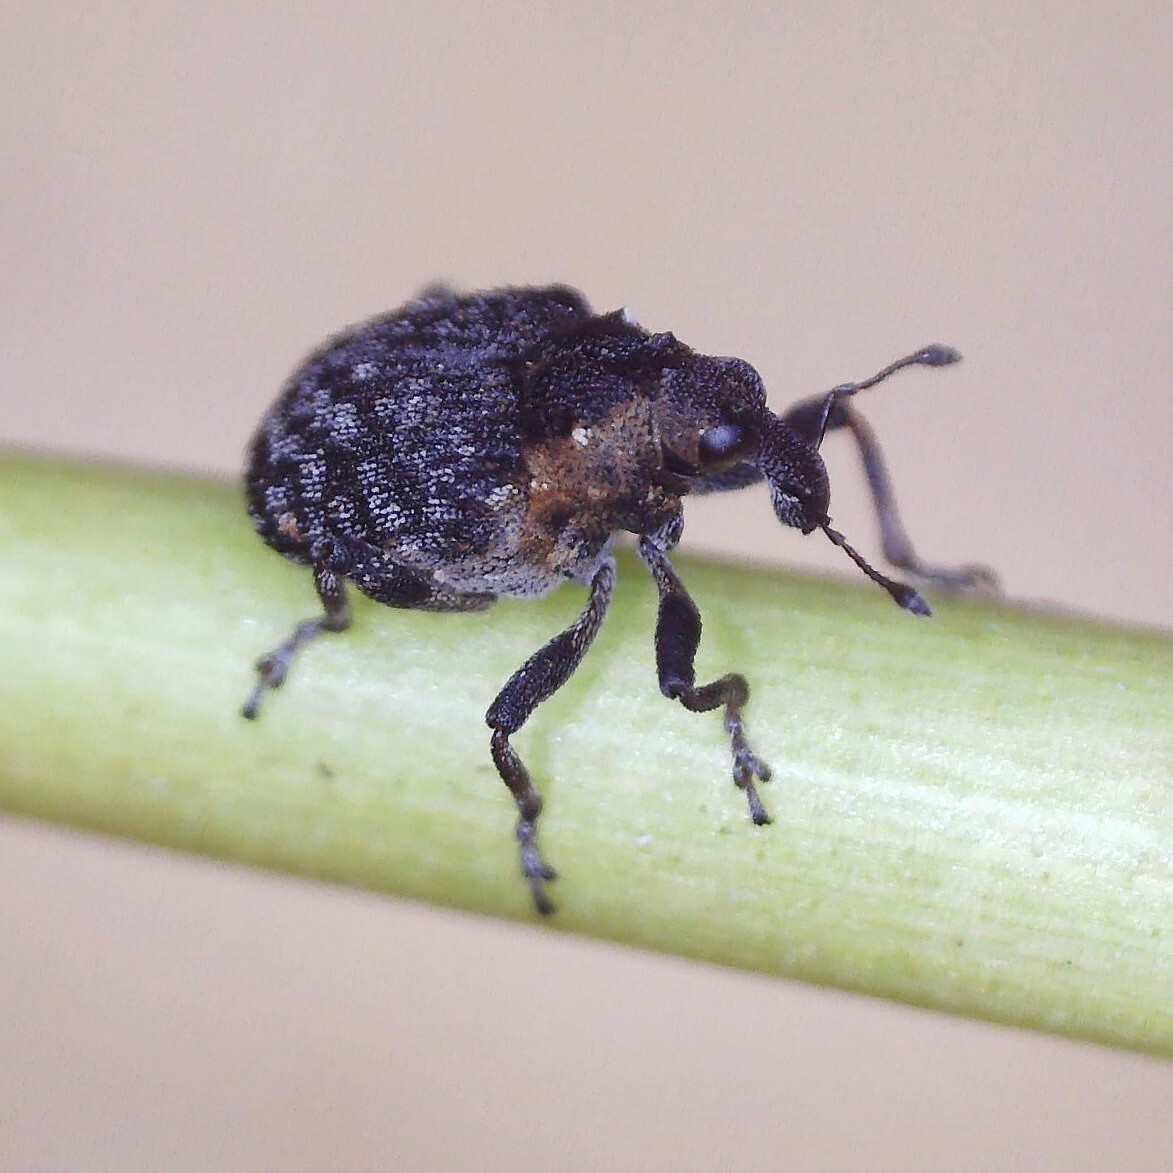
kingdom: Animalia
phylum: Arthropoda
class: Insecta
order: Coleoptera
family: Curculionidae
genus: Pelenomus
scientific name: Pelenomus quadrituberculatus
